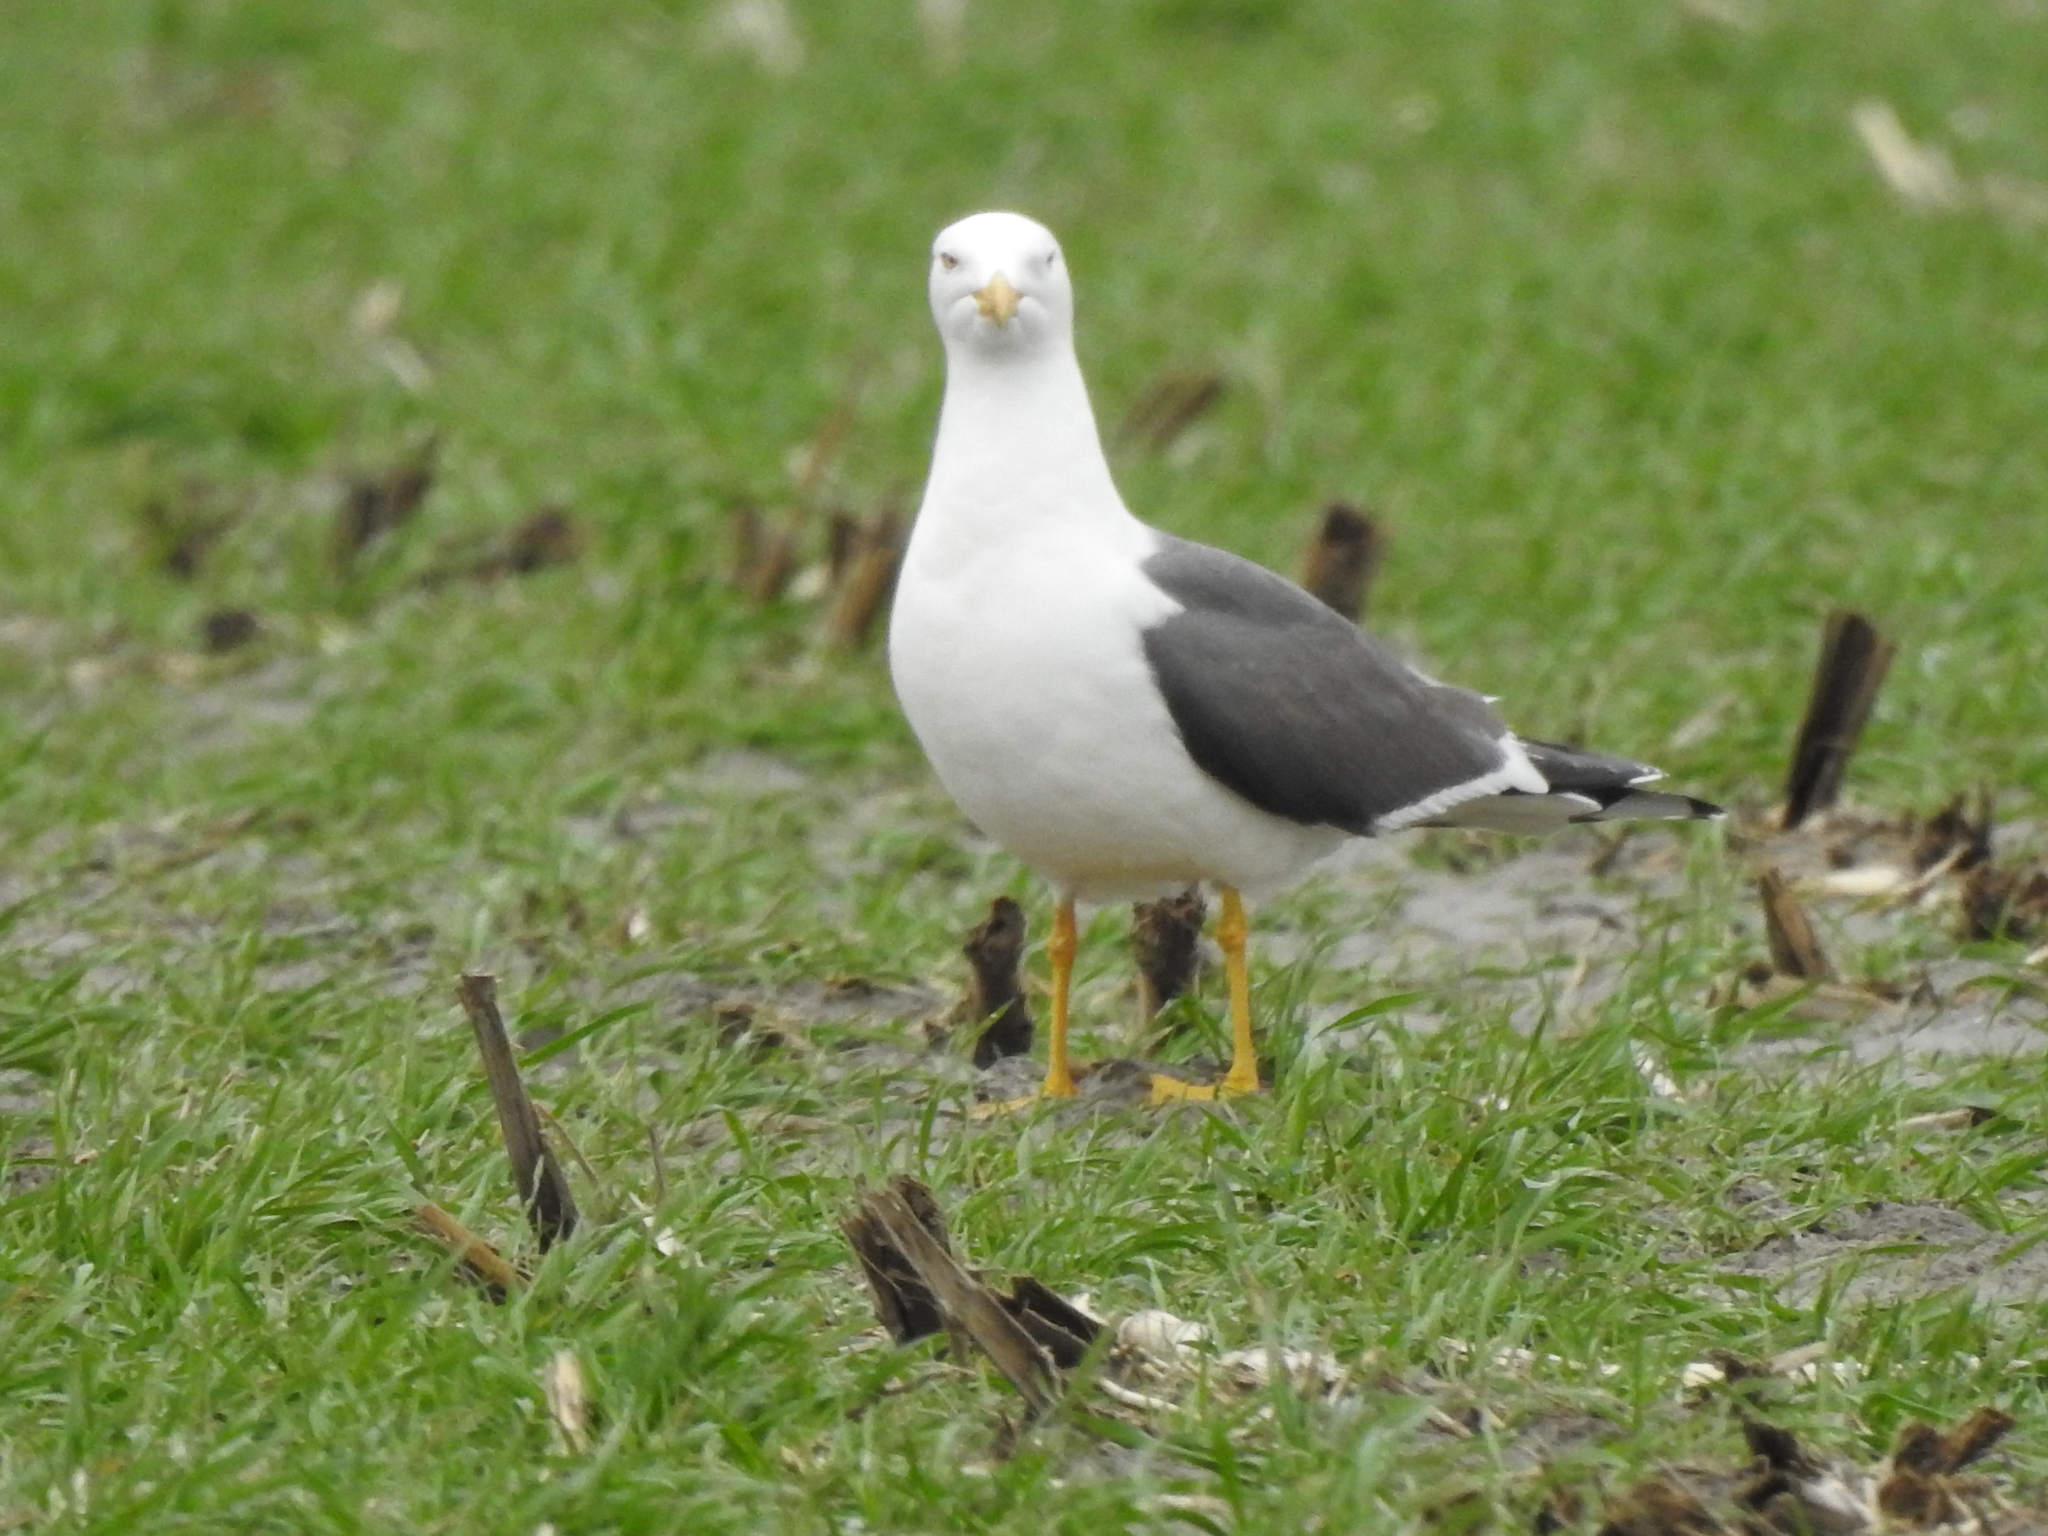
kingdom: Animalia
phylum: Chordata
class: Aves
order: Charadriiformes
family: Laridae
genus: Larus
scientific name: Larus fuscus
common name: Lesser black-backed gull
